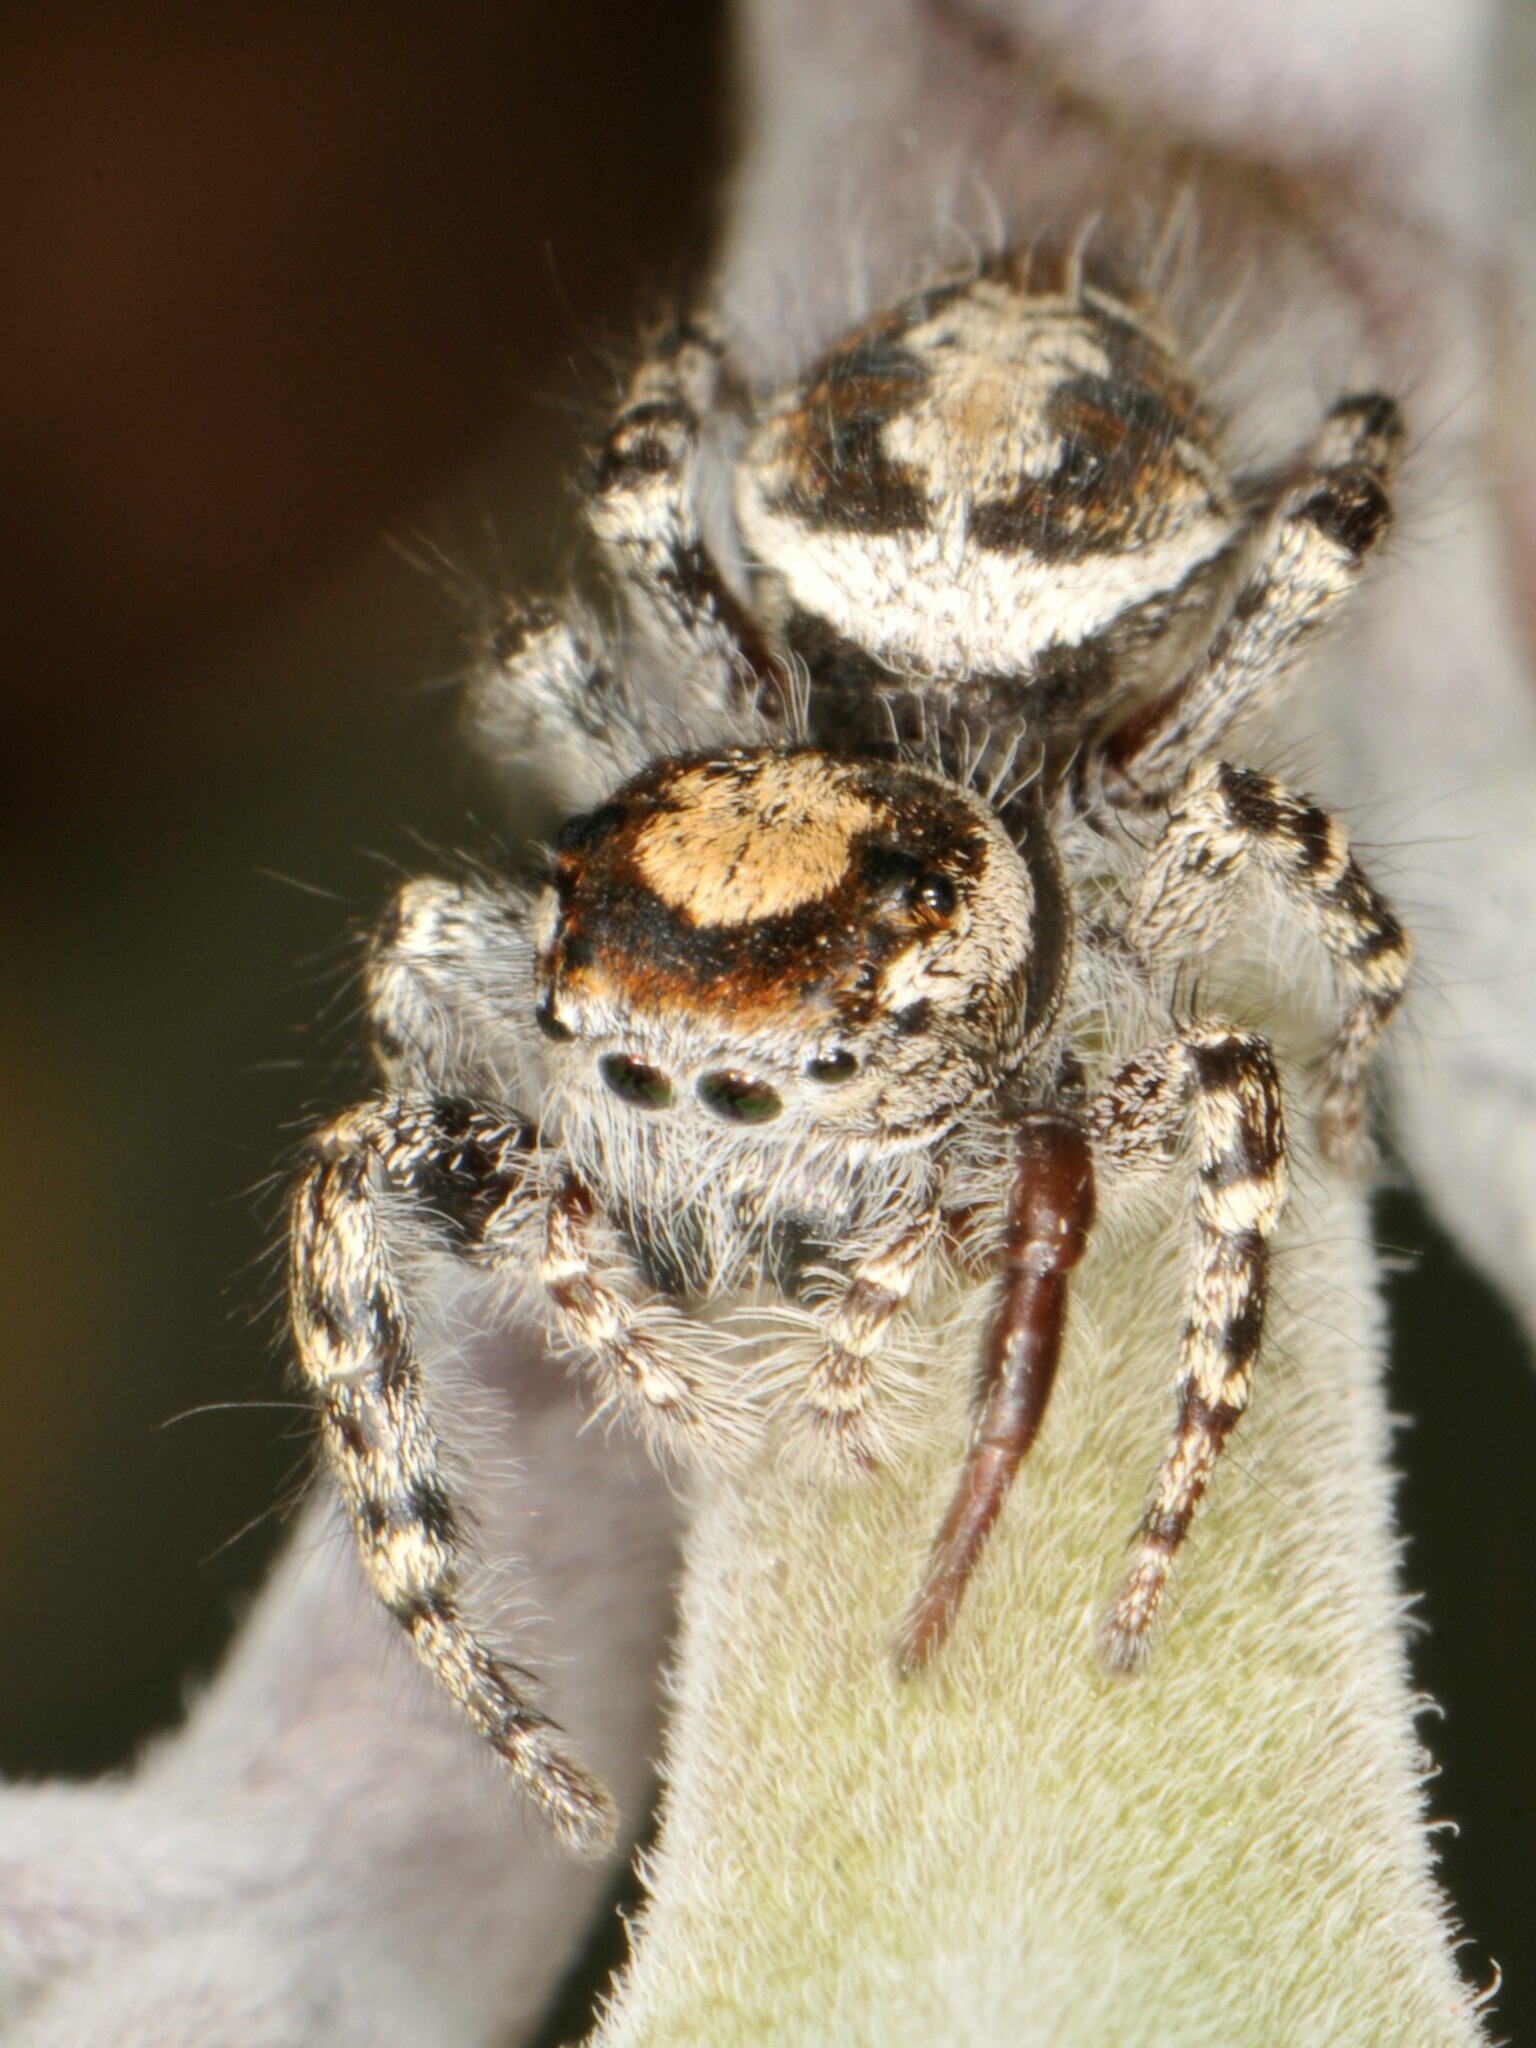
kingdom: Animalia
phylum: Arthropoda
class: Arachnida
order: Araneae
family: Salticidae
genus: Phidippus
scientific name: Phidippus comatus
